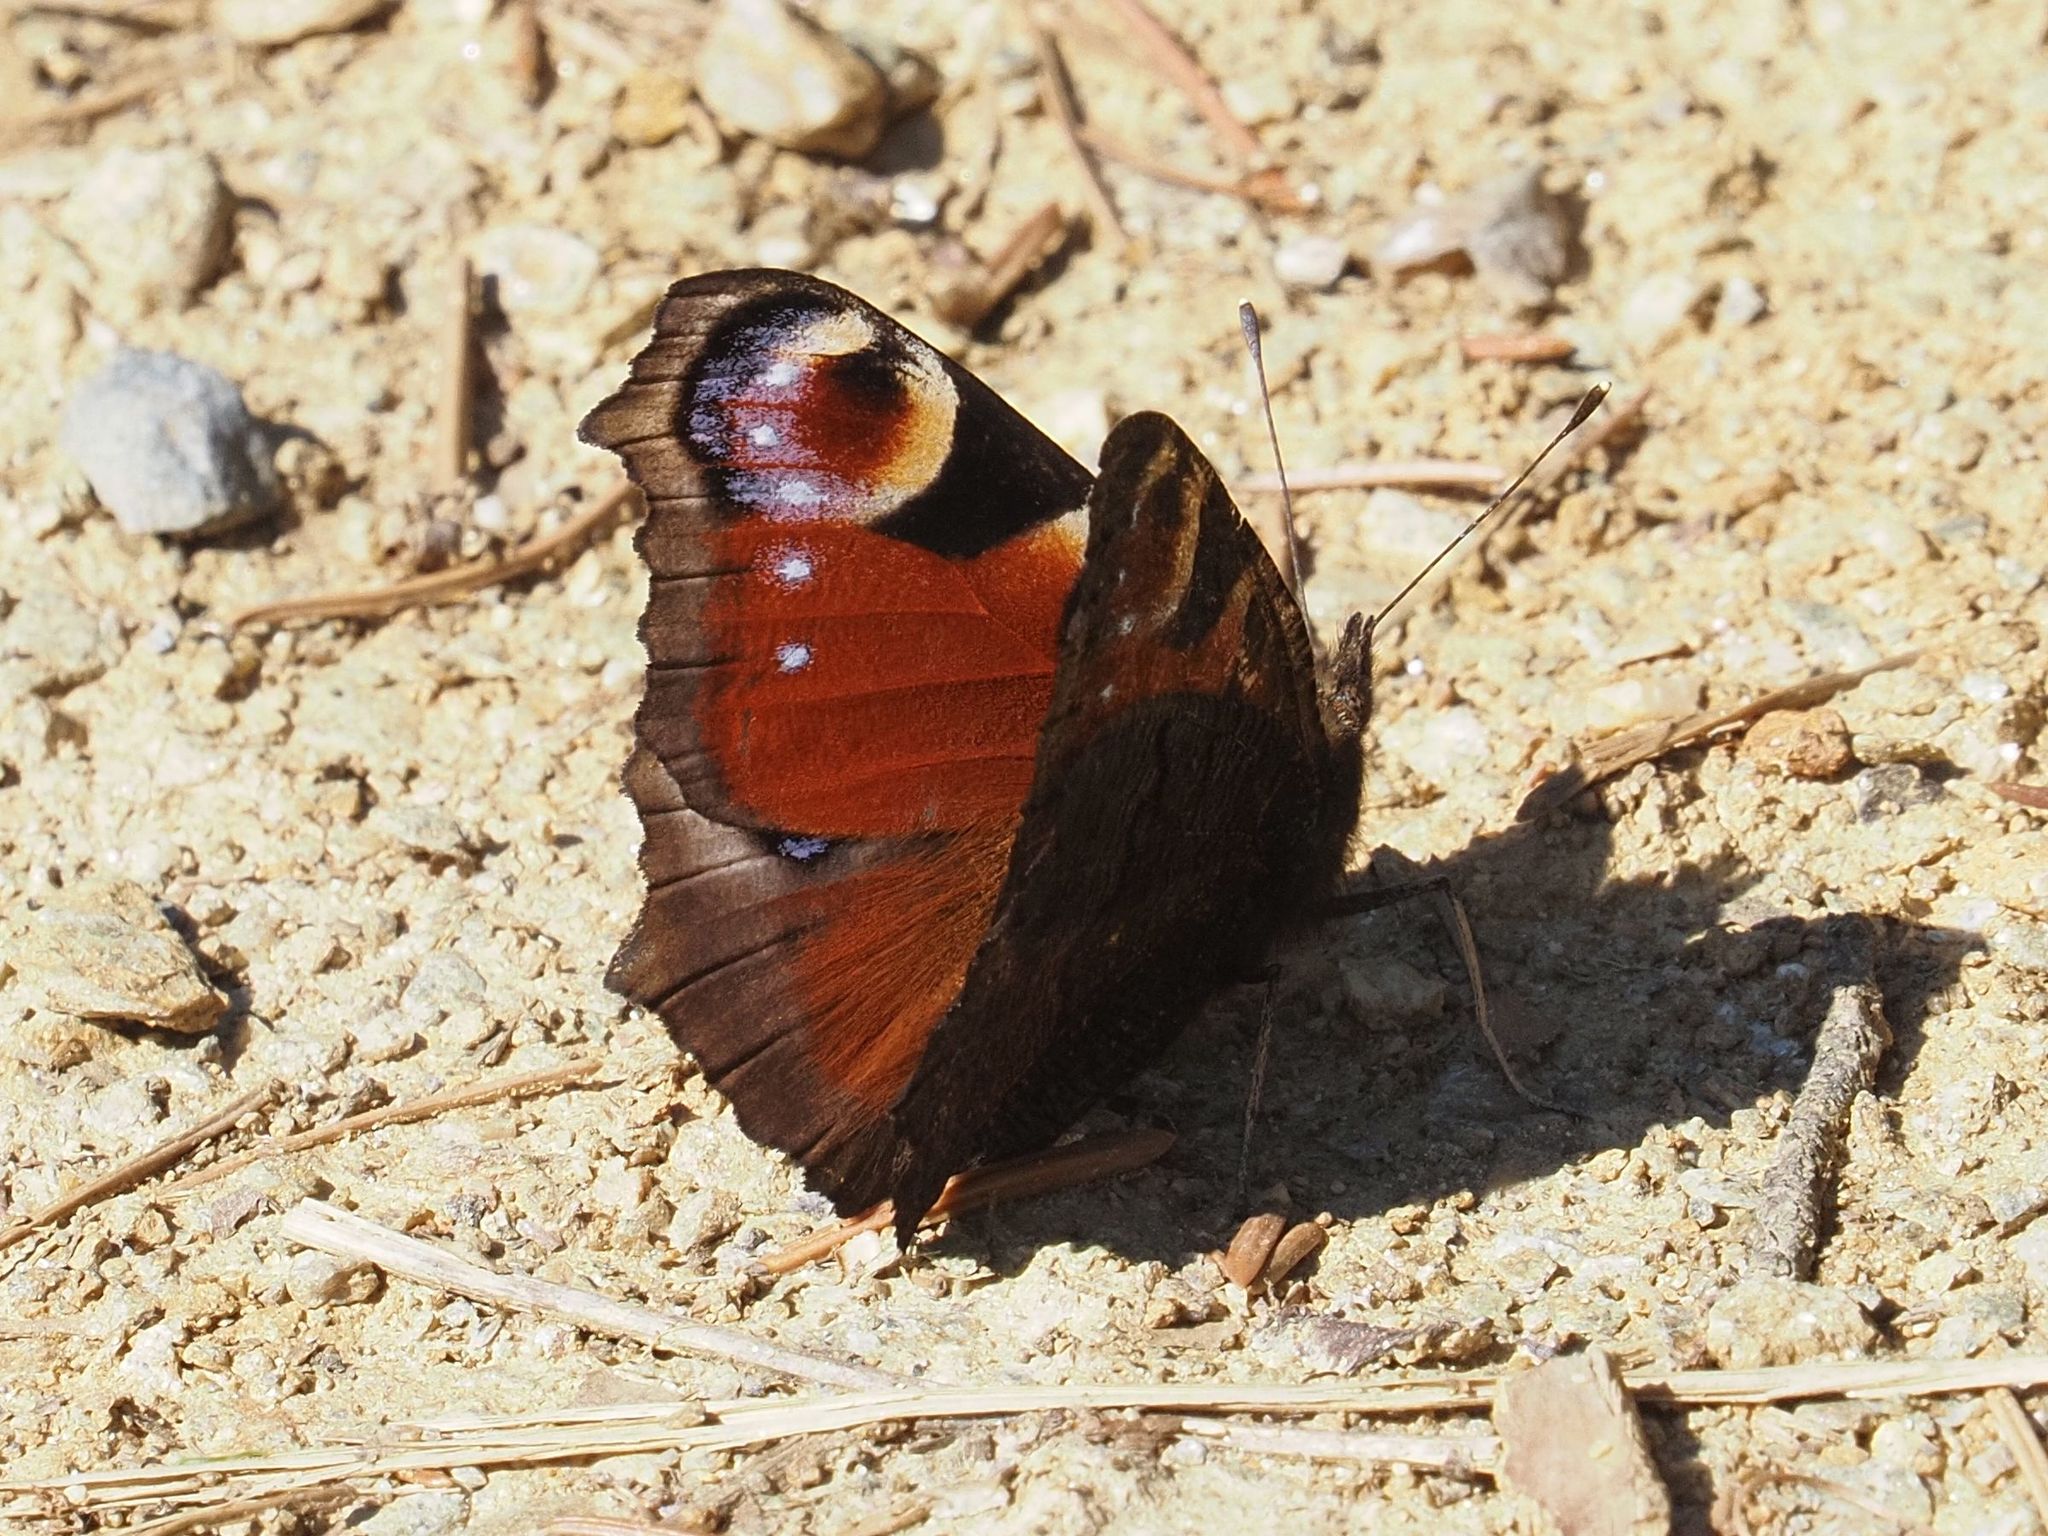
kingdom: Animalia
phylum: Arthropoda
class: Insecta
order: Lepidoptera
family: Nymphalidae
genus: Aglais
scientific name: Aglais io
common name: Peacock
